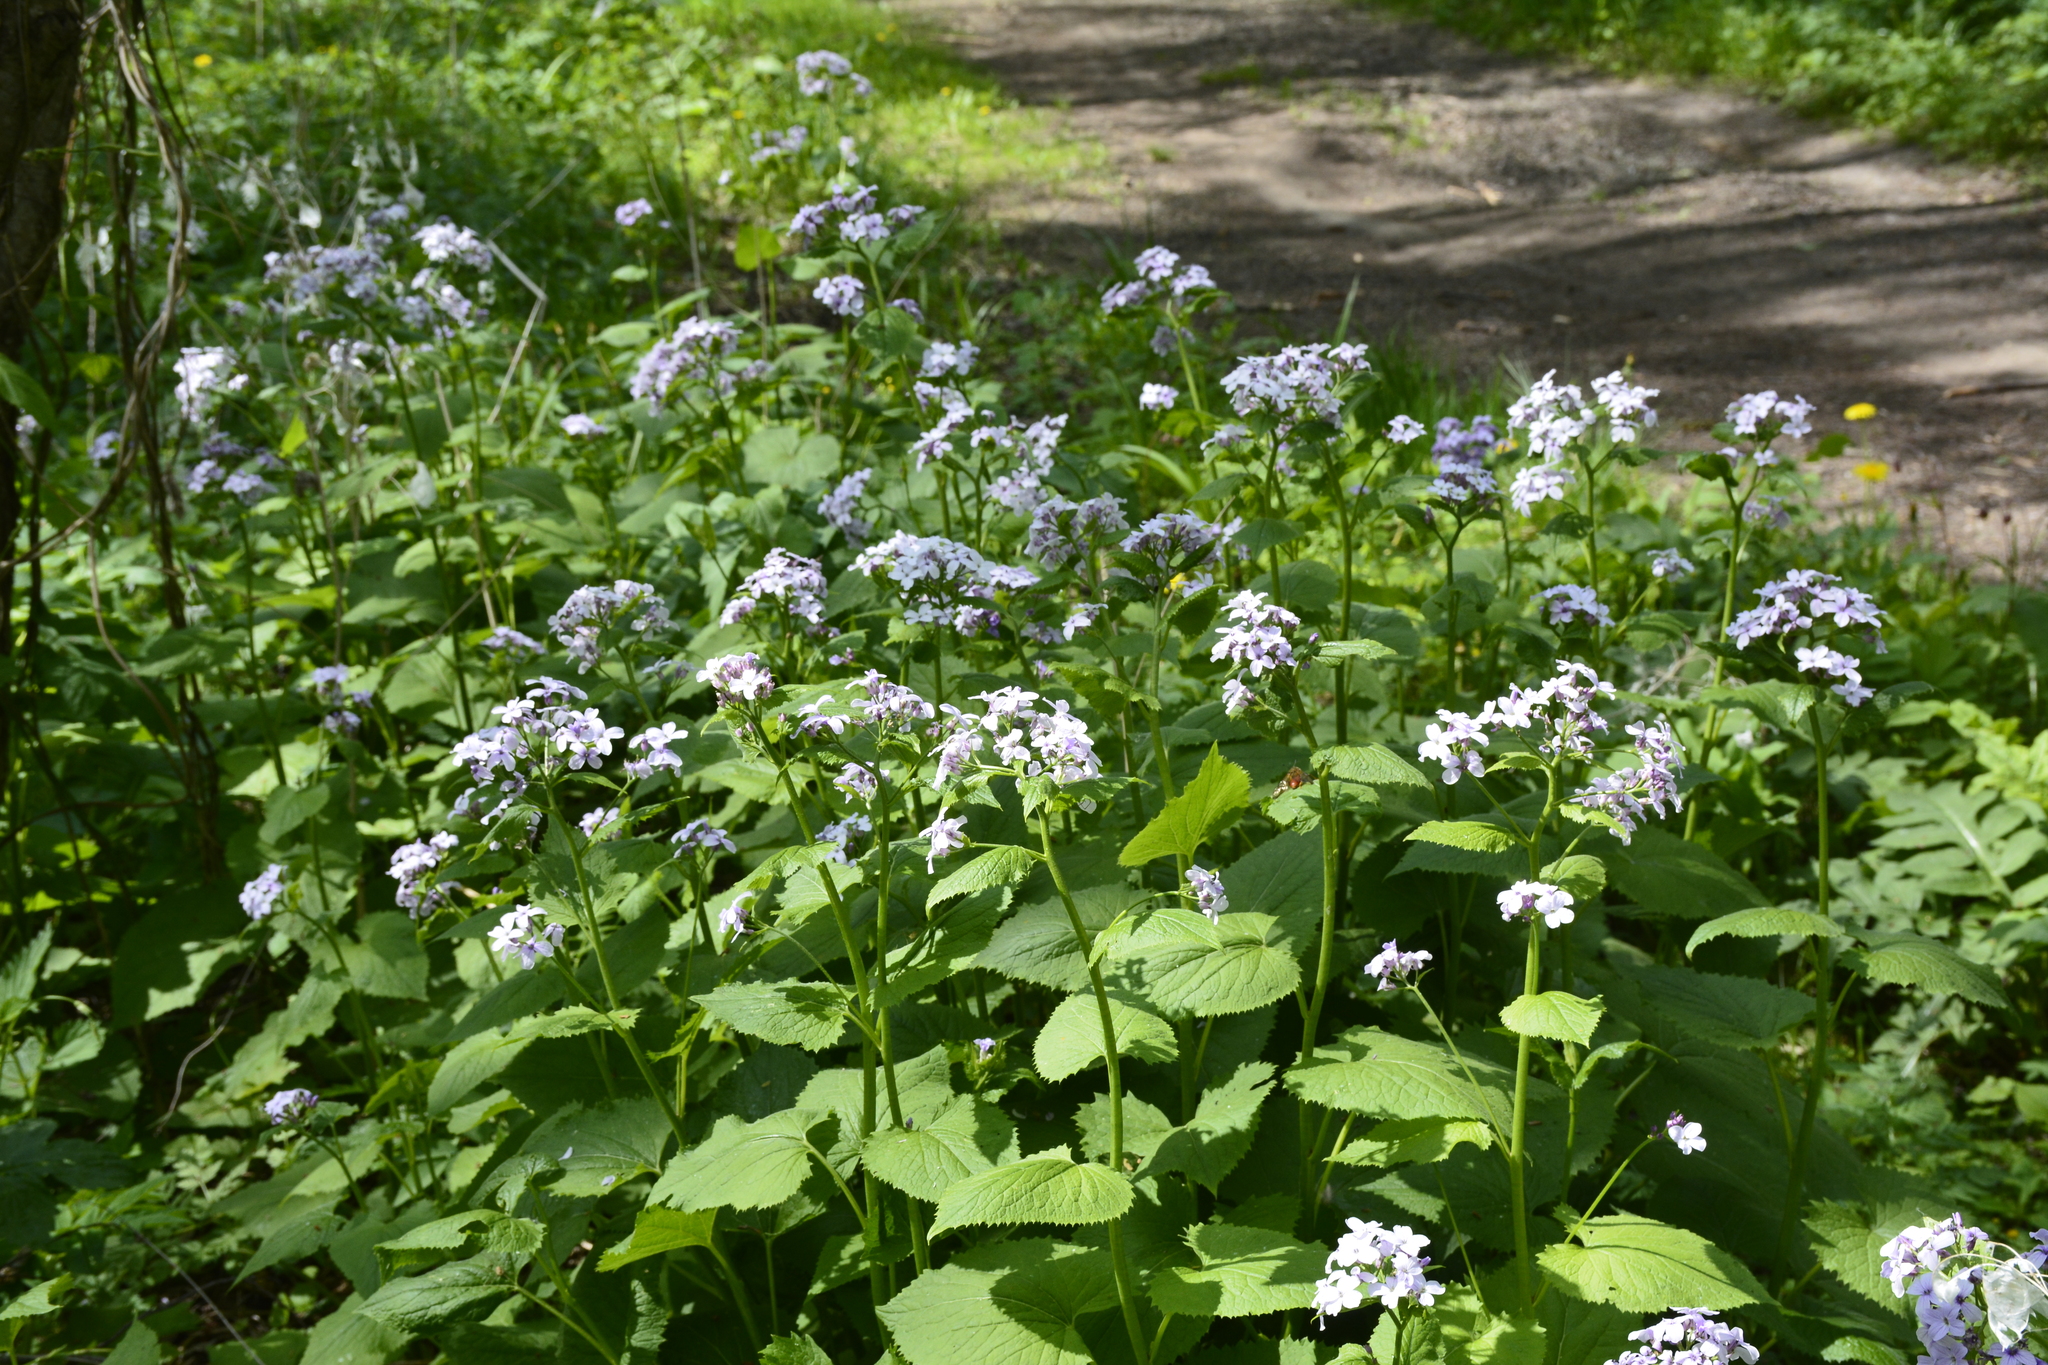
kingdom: Plantae
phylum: Tracheophyta
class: Magnoliopsida
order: Brassicales
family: Brassicaceae
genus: Lunaria
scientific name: Lunaria rediviva
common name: Perennial honesty
